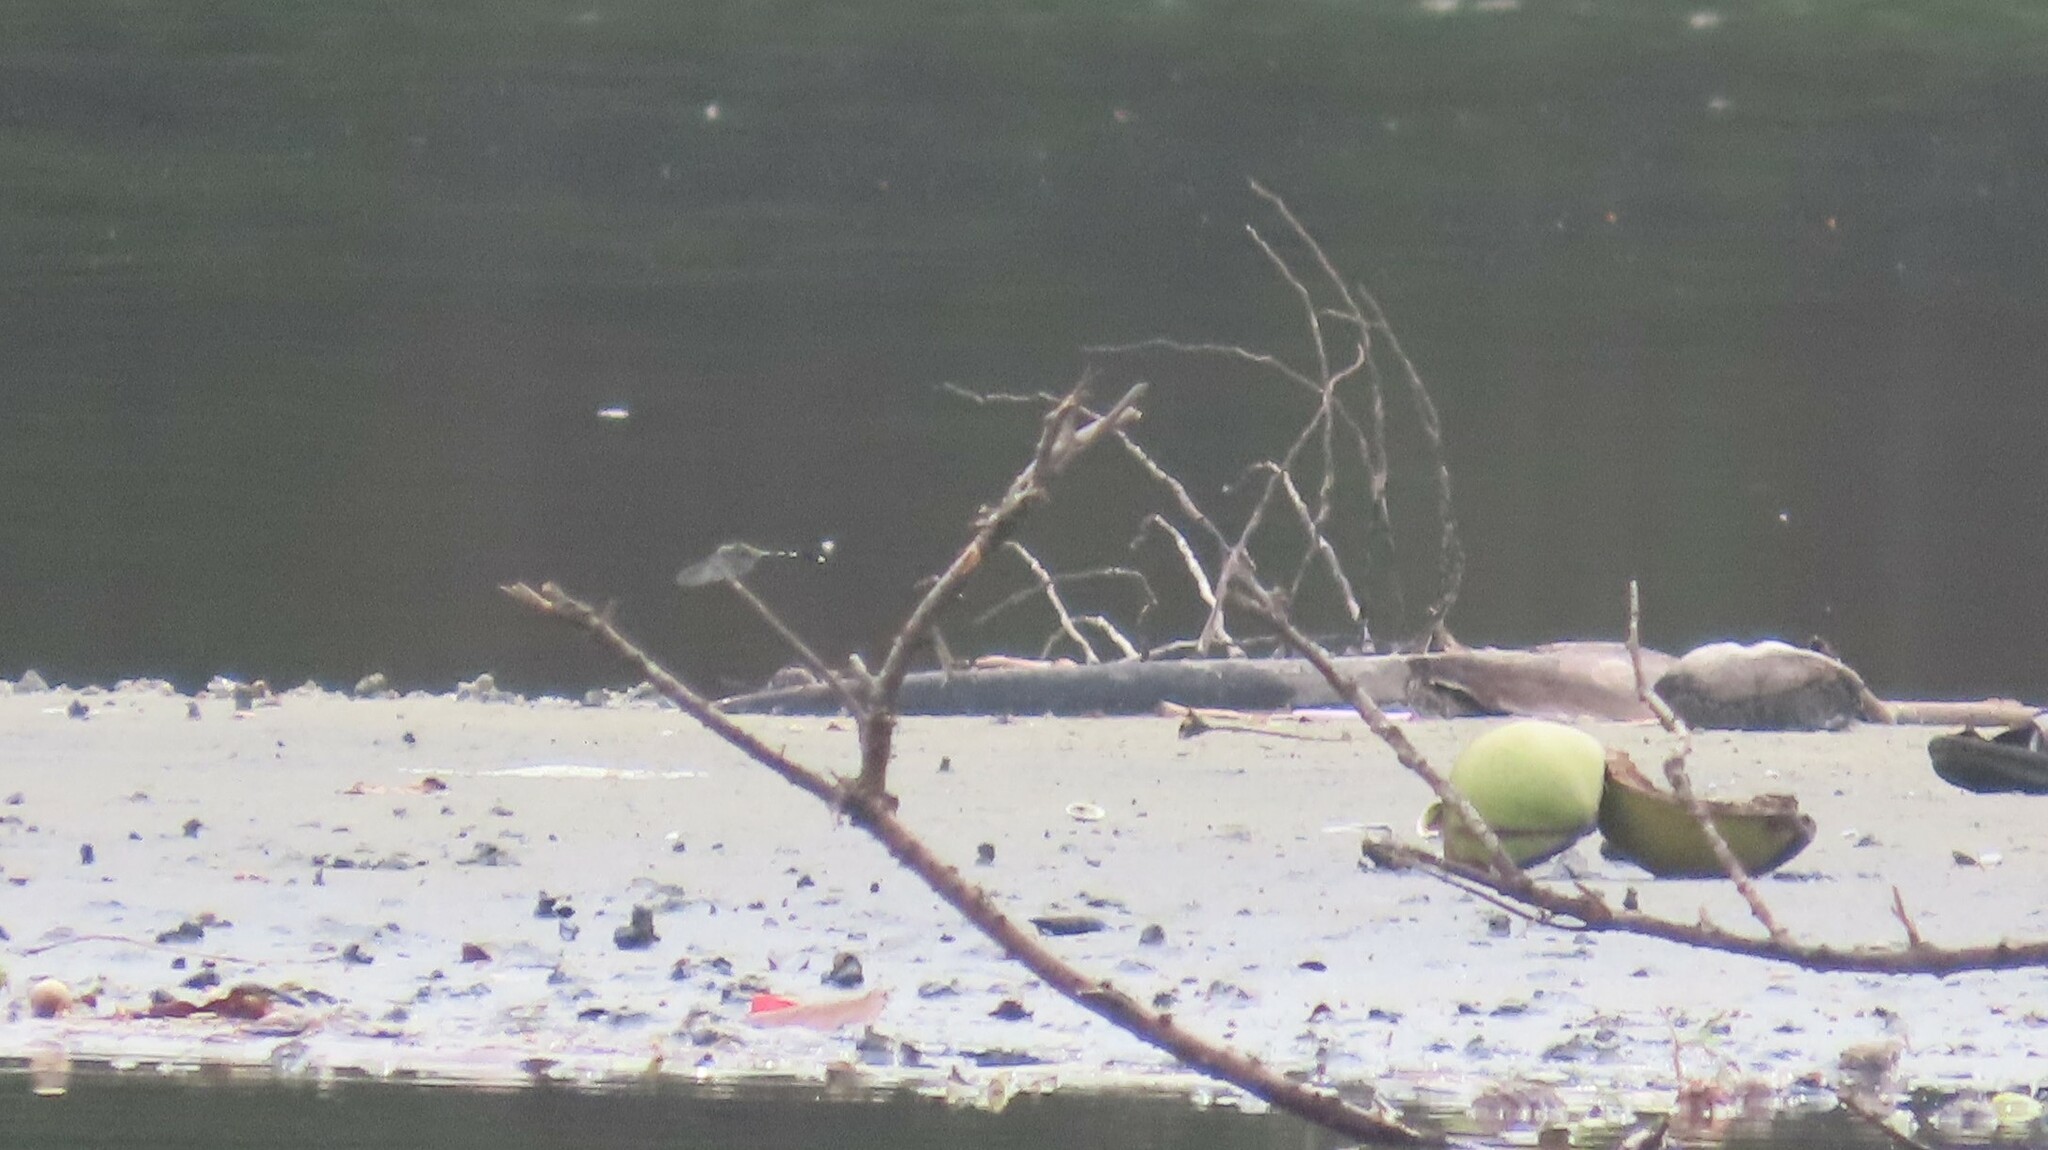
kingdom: Animalia
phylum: Arthropoda
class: Insecta
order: Odonata
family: Libellulidae
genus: Orthetrum
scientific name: Orthetrum sabina
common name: Slender skimmer
